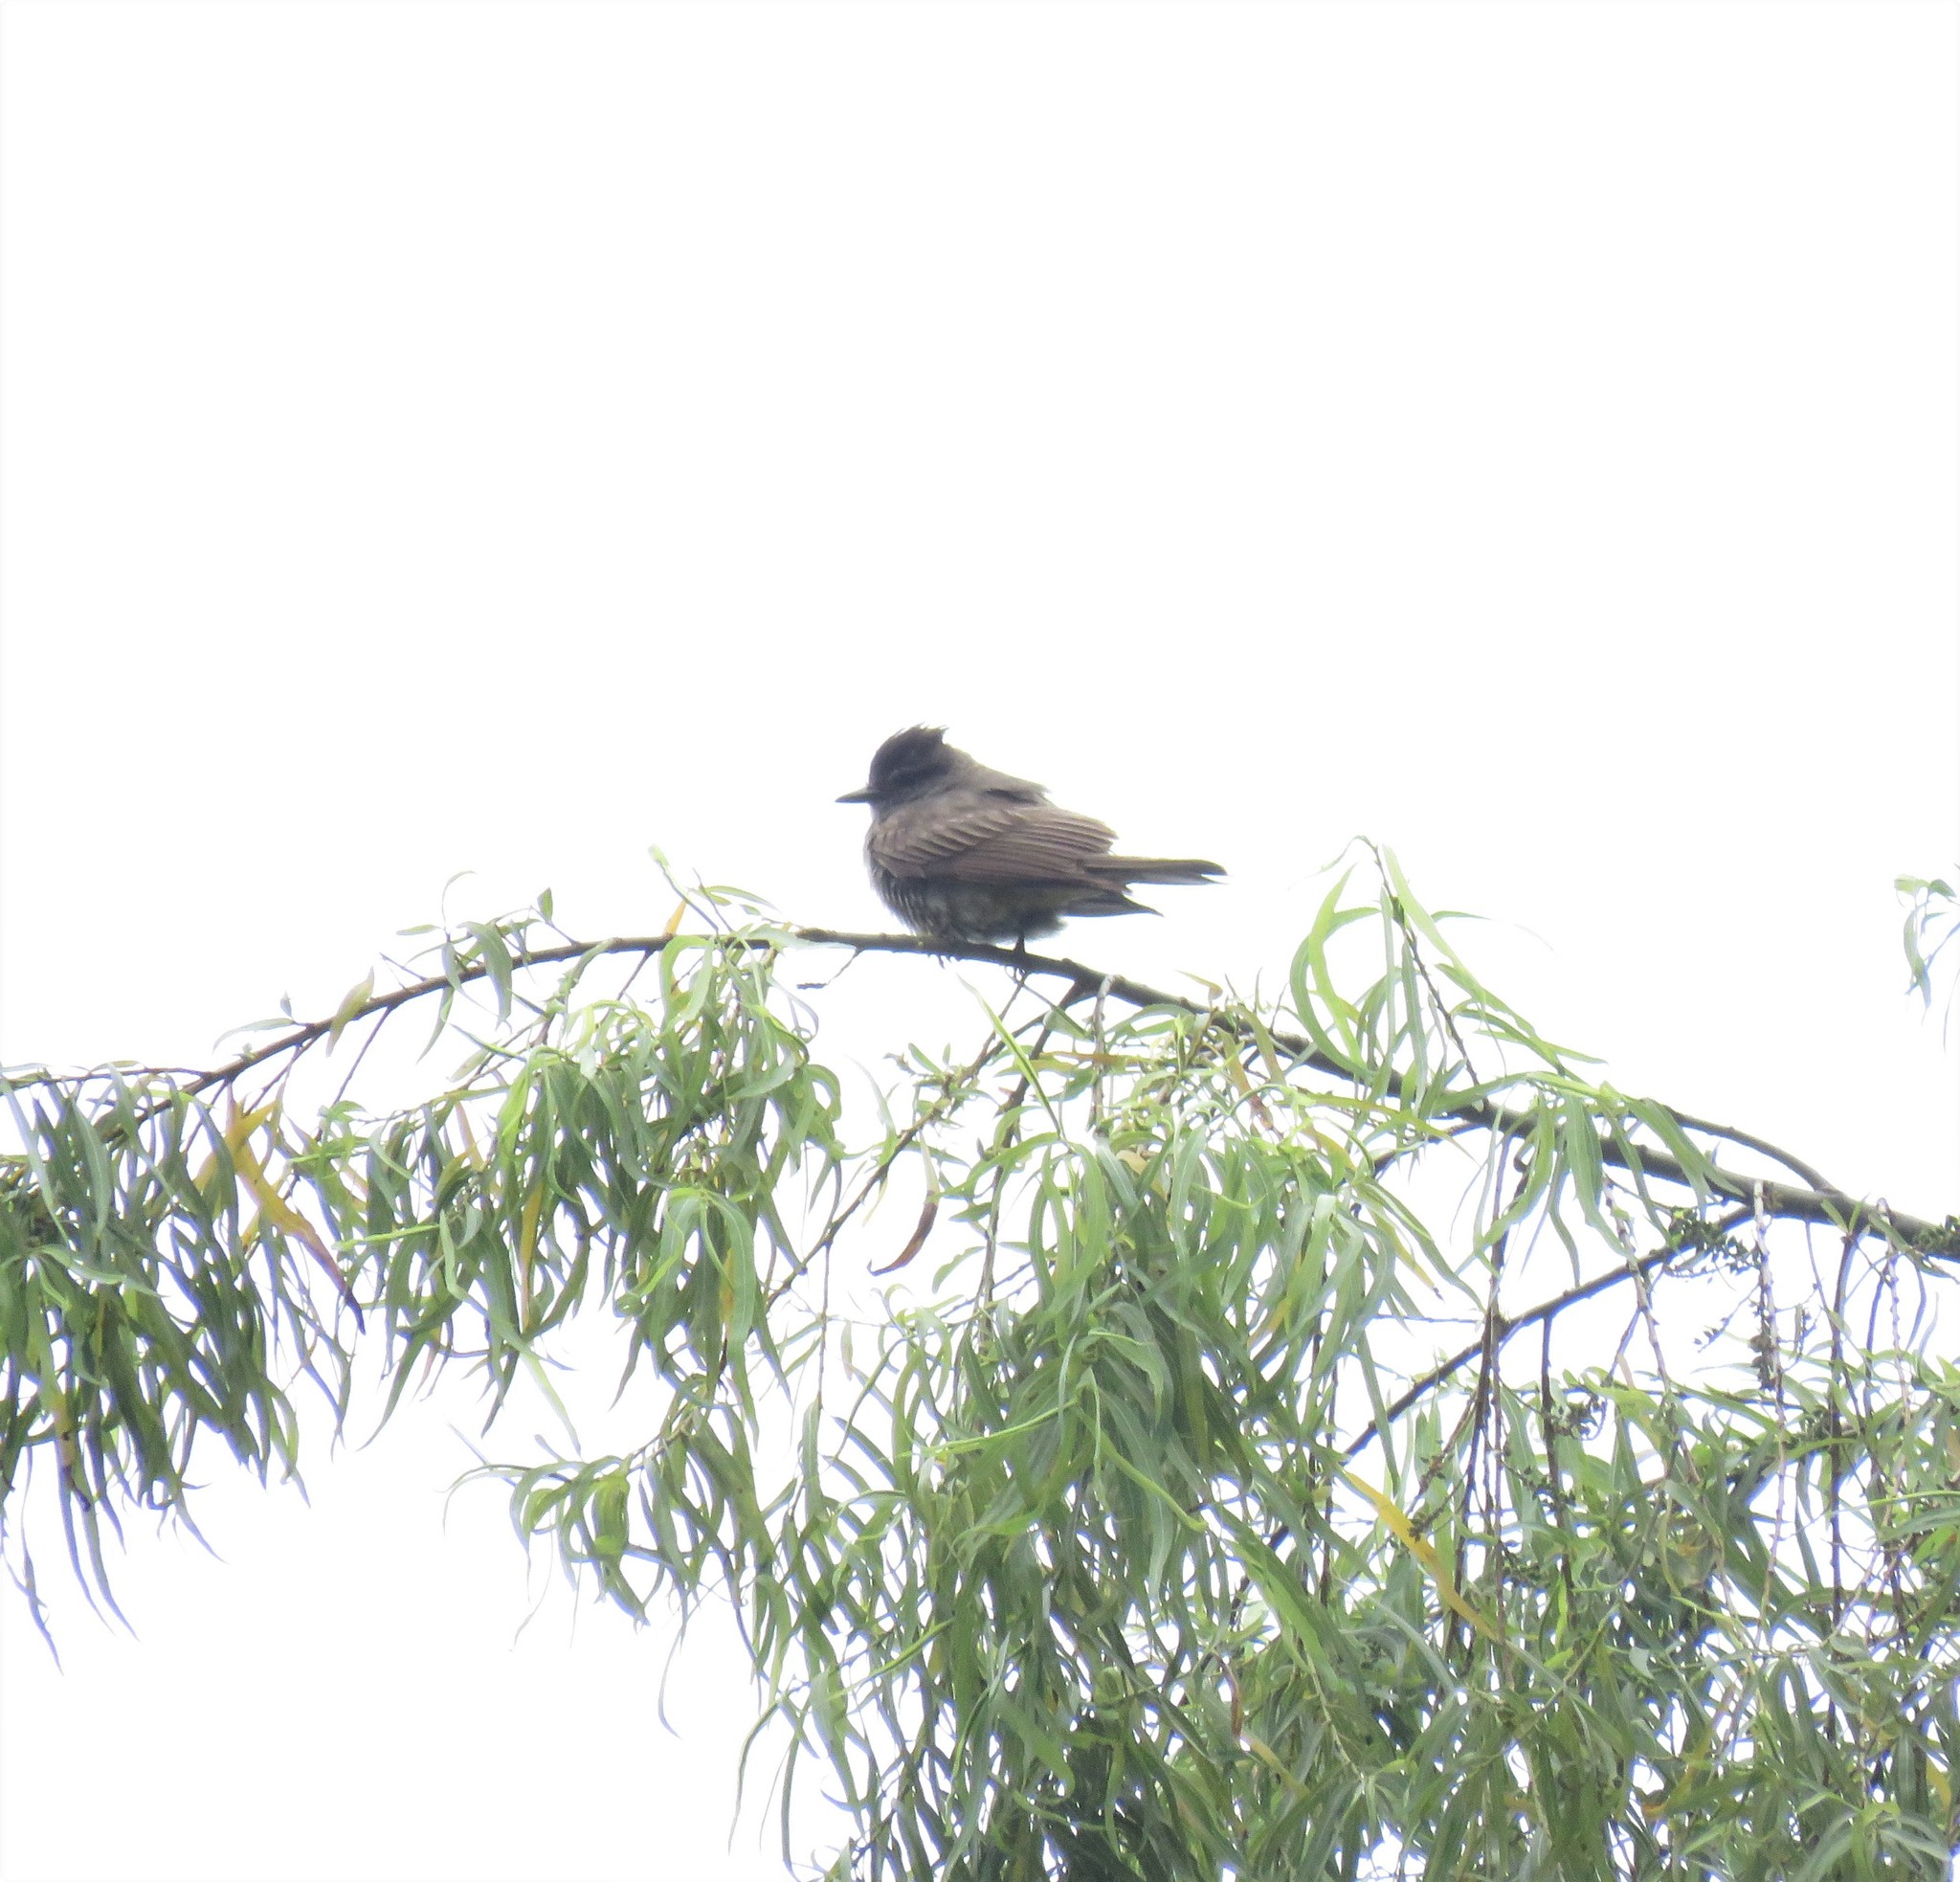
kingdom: Animalia
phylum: Chordata
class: Aves
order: Passeriformes
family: Tyrannidae
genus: Empidonomus
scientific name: Empidonomus aurantioatrocristatus
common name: Crowned slaty flycatcher
